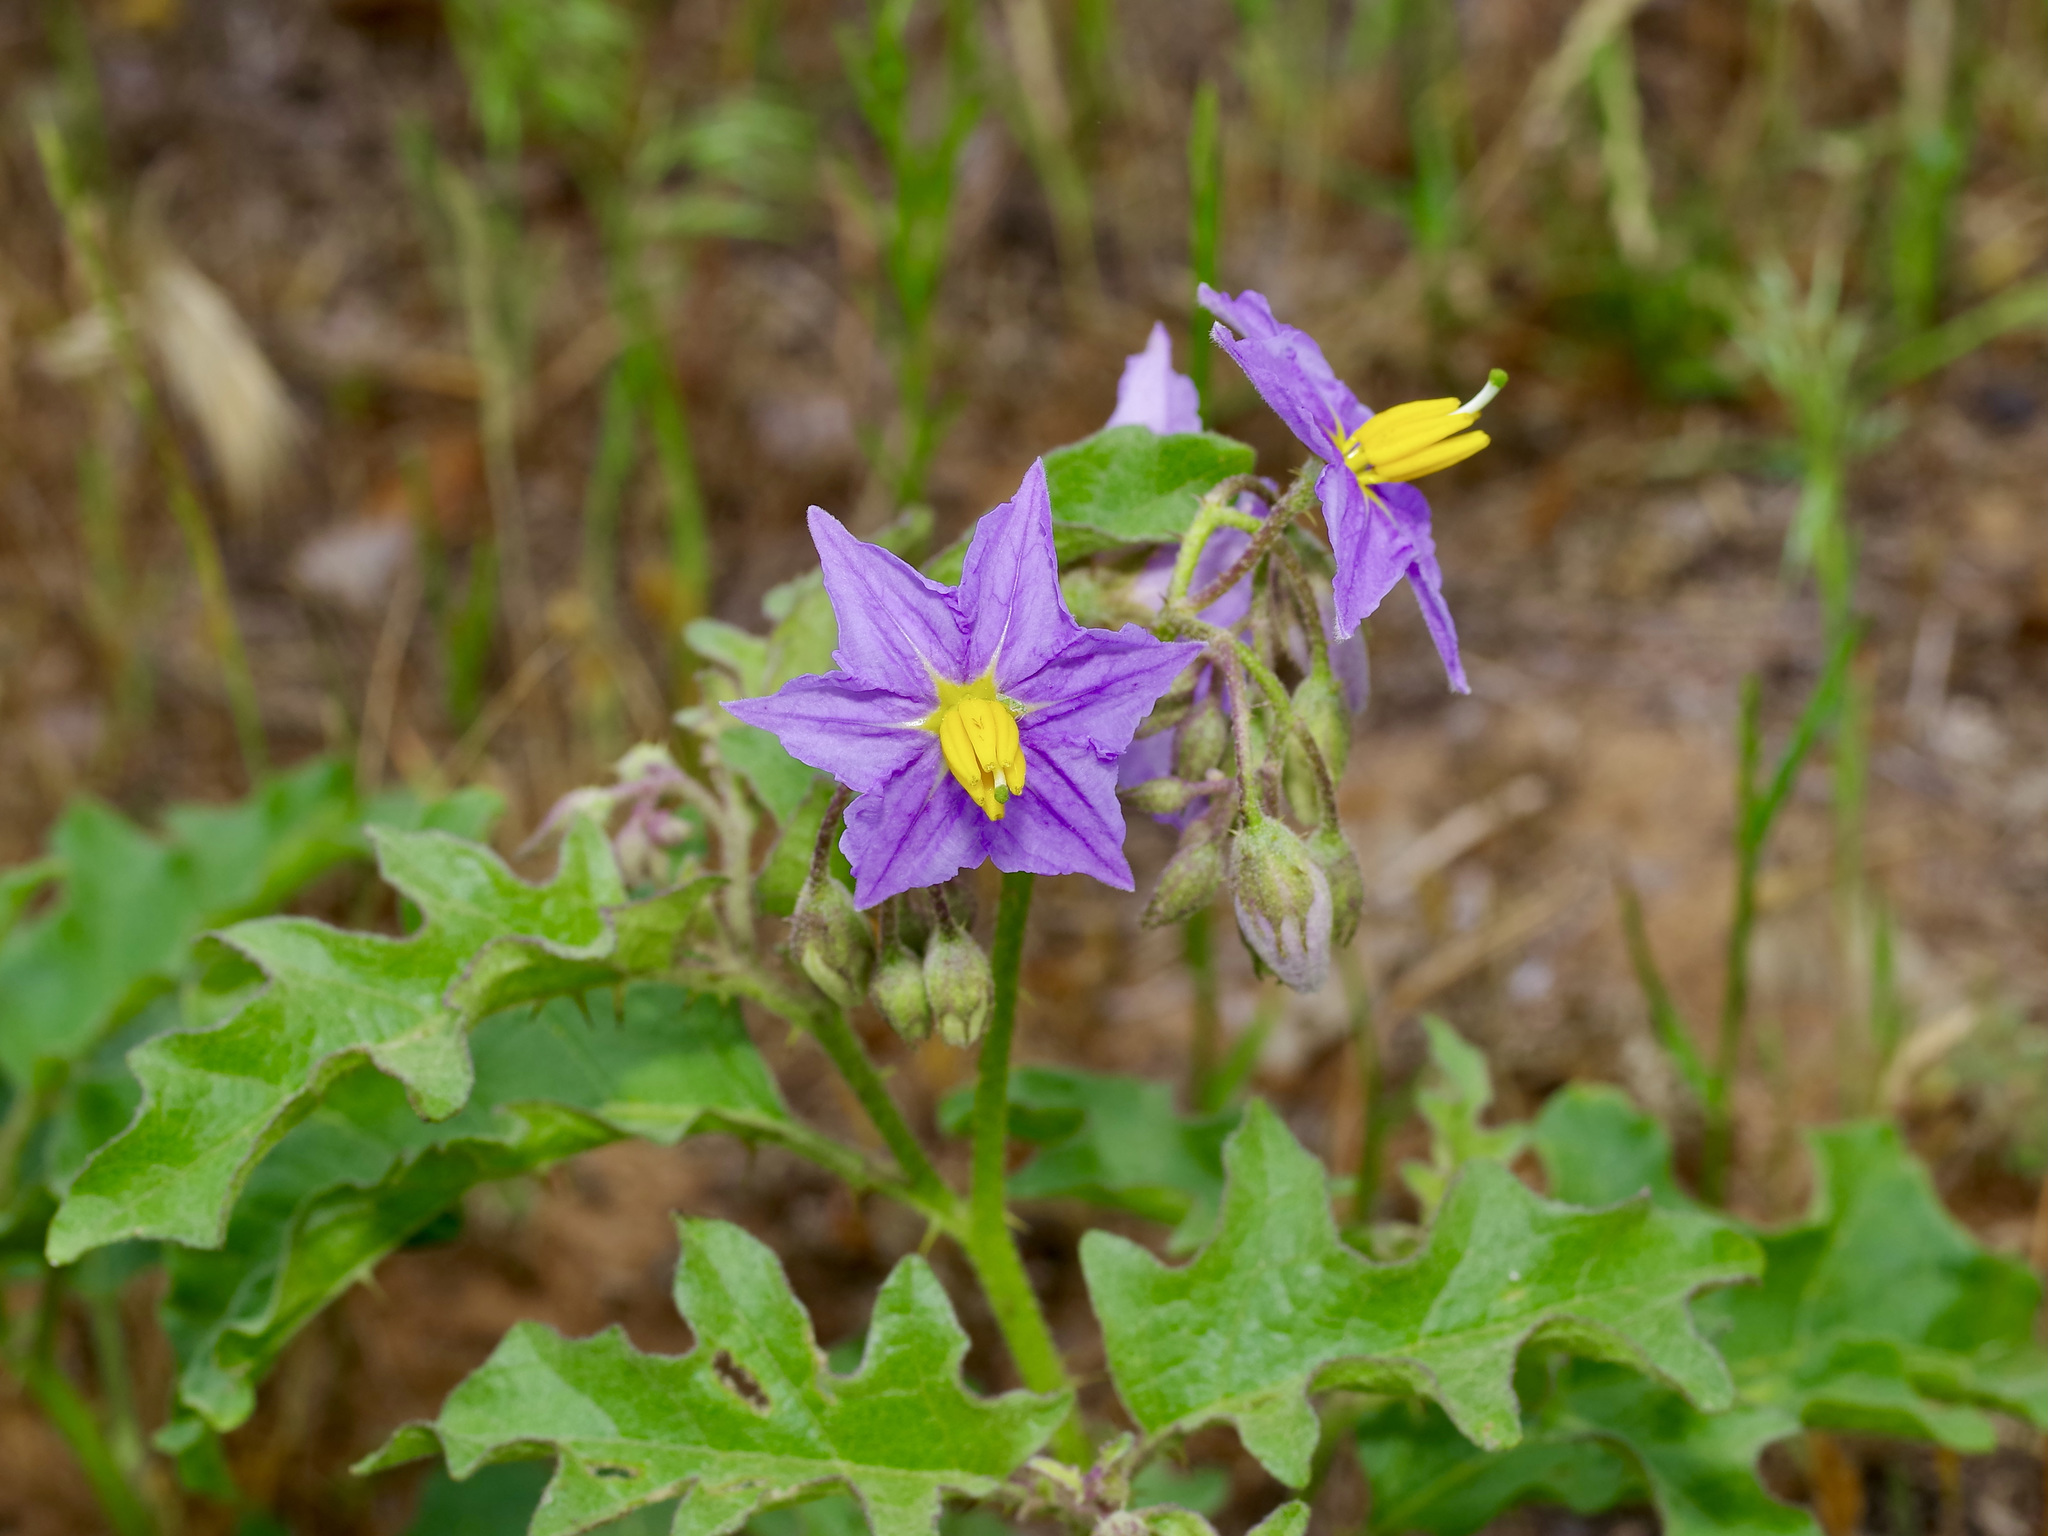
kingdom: Plantae
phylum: Tracheophyta
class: Magnoliopsida
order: Solanales
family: Solanaceae
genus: Solanum
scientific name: Solanum dimidiatum
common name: Carolina horse-nettle
